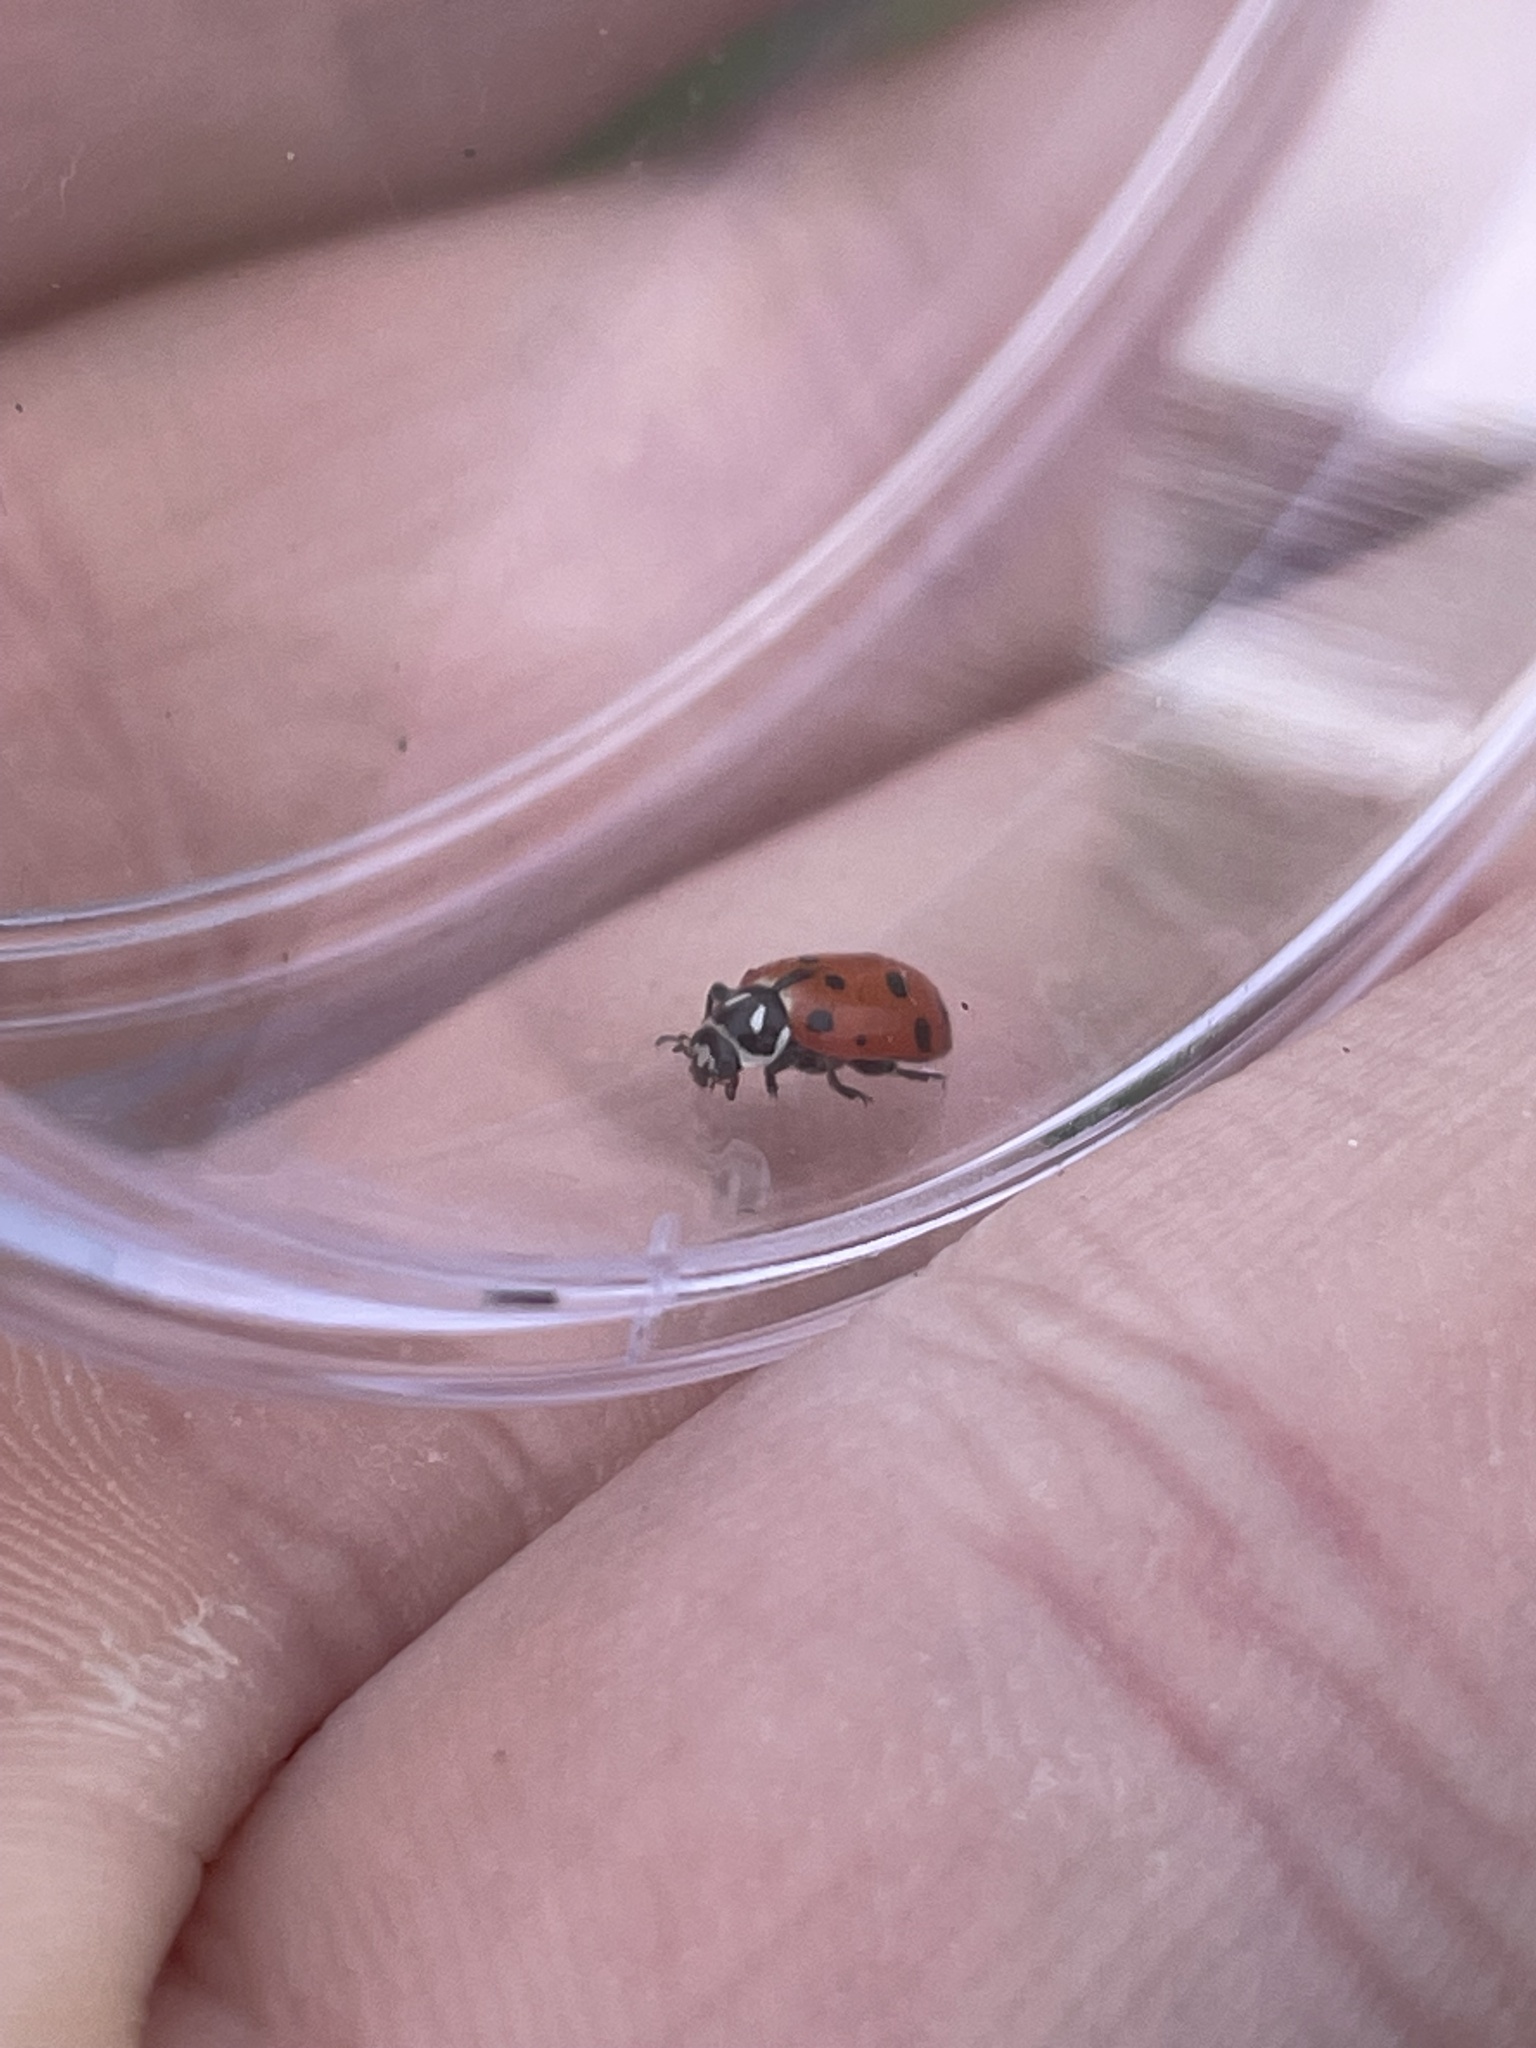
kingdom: Animalia
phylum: Arthropoda
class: Insecta
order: Coleoptera
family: Coccinellidae
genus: Hippodamia
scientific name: Hippodamia convergens
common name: Convergent lady beetle
